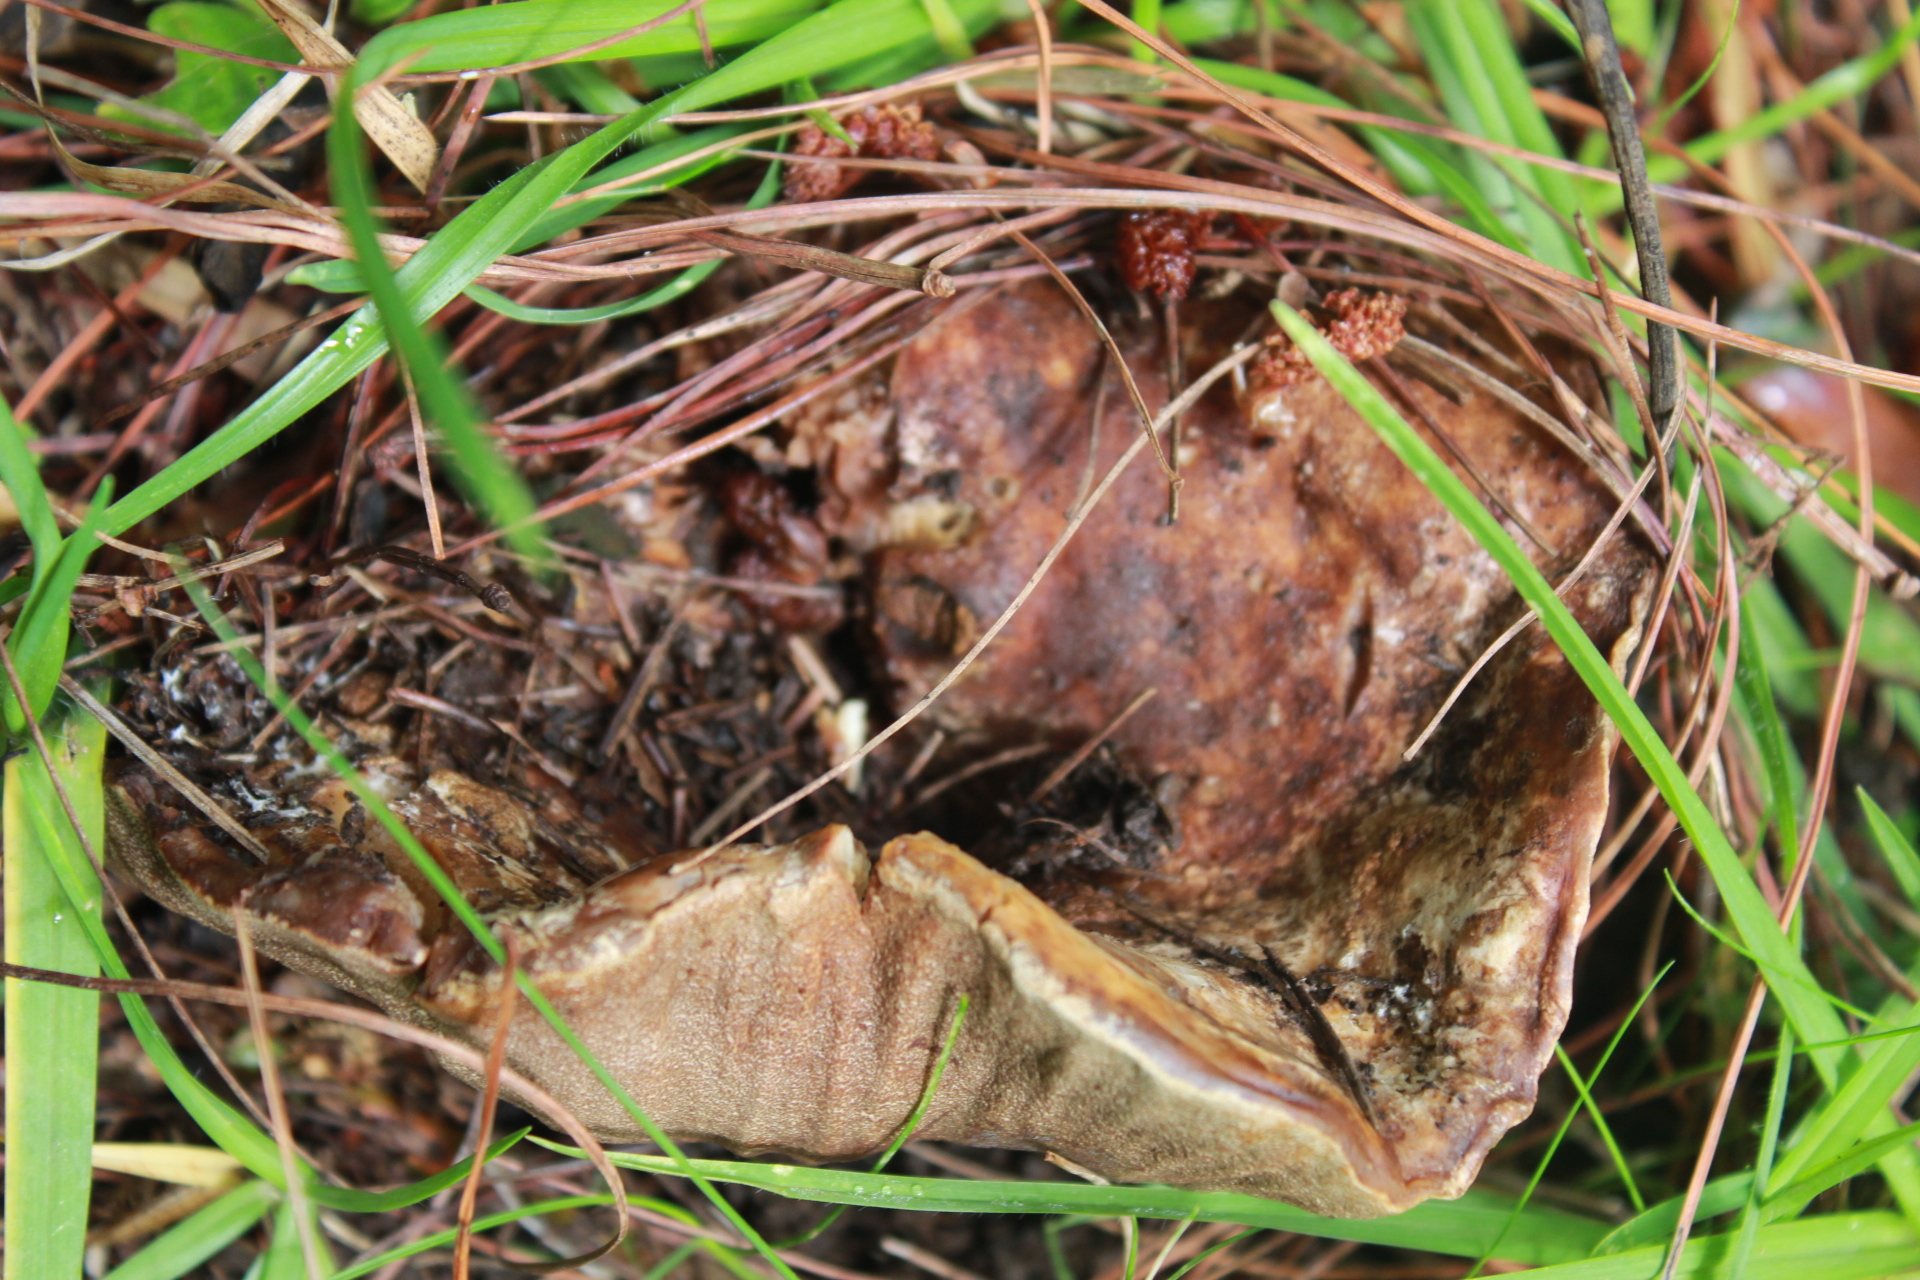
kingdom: Fungi
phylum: Ascomycota
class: Sordariomycetes
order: Hypocreales
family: Hypocreaceae
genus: Hypomyces
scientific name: Hypomyces macrosporus
